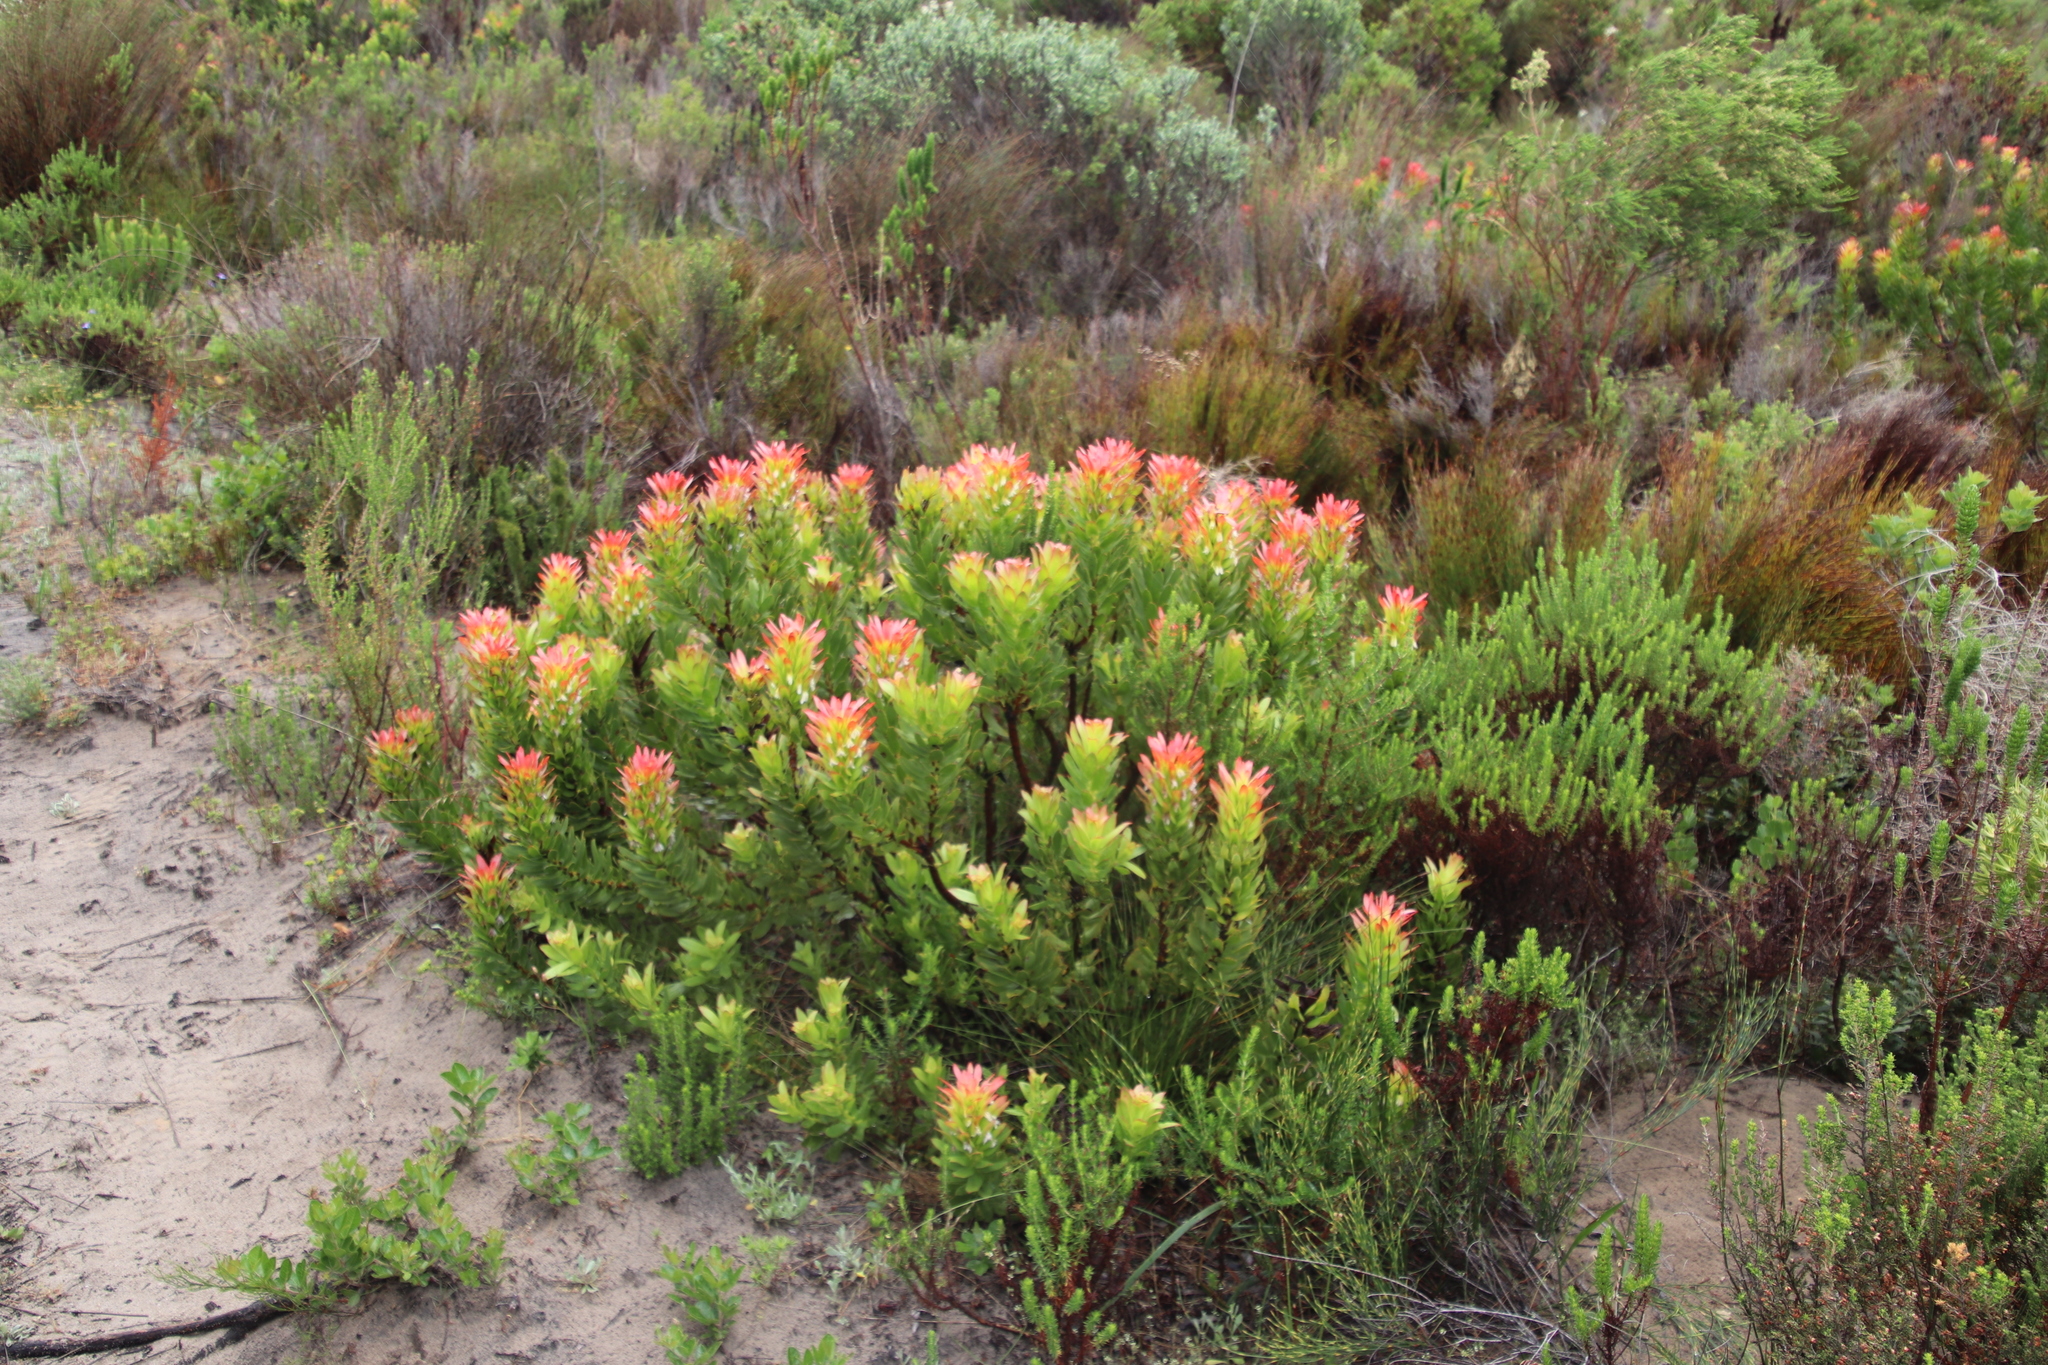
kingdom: Plantae
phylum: Tracheophyta
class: Magnoliopsida
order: Proteales
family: Proteaceae
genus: Mimetes
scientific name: Mimetes cucullatus
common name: Common pagoda
